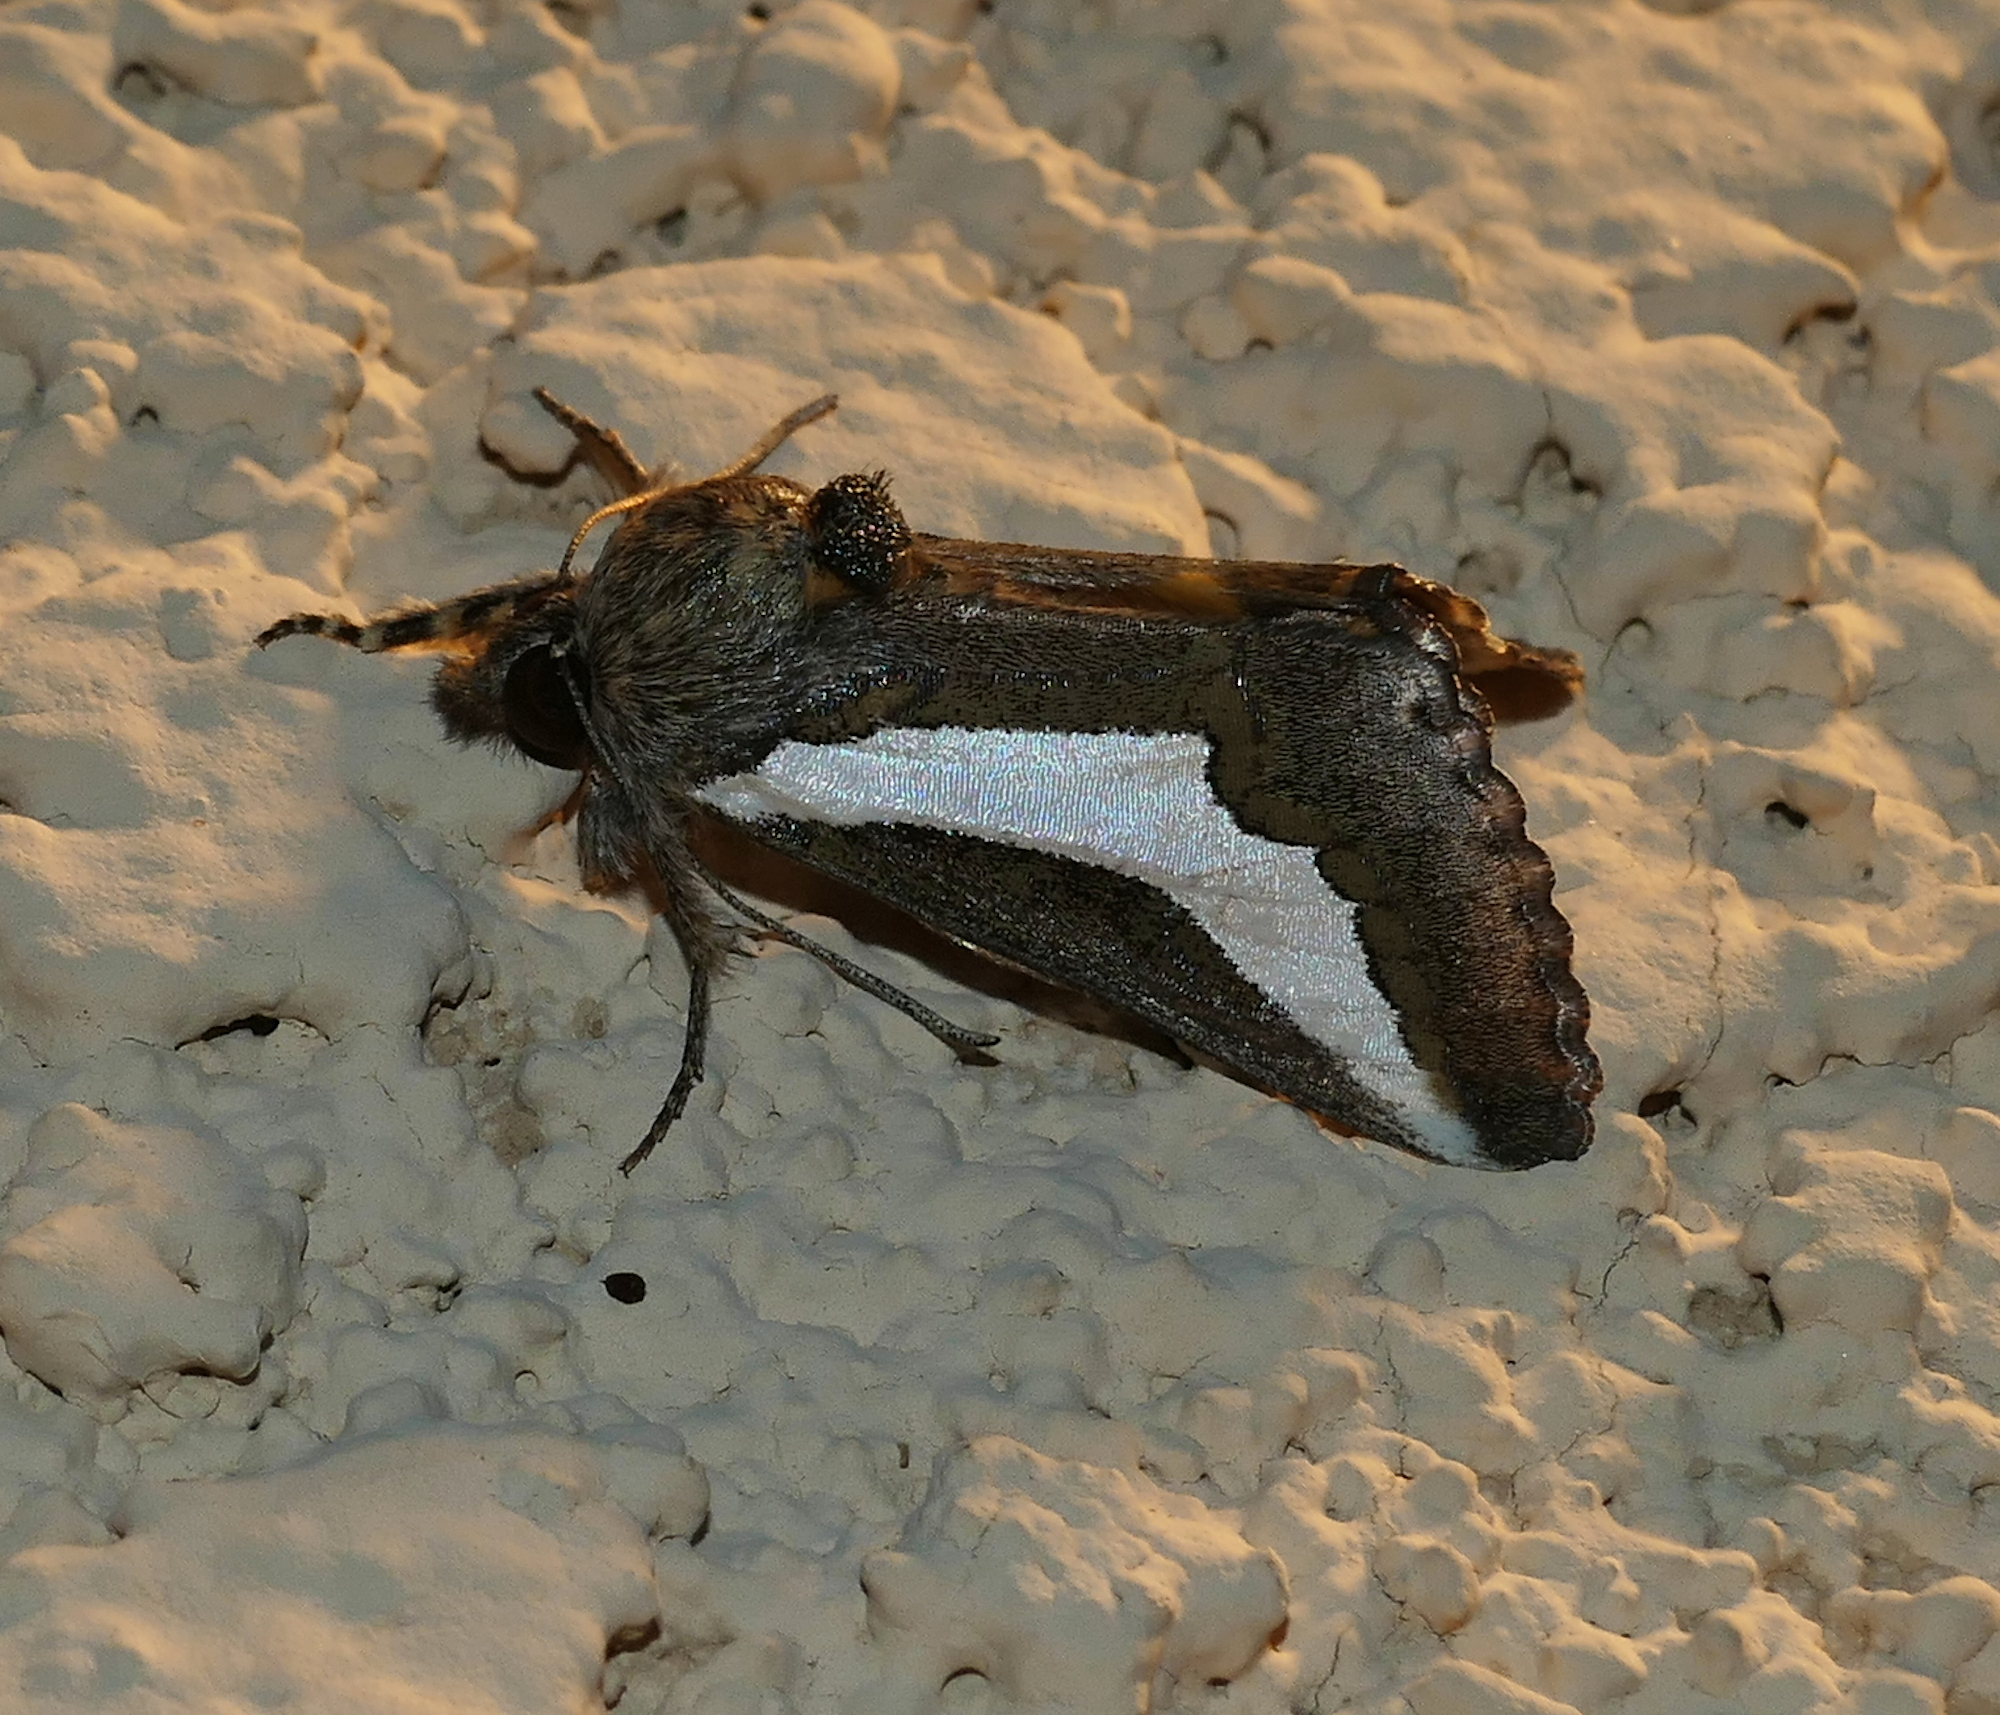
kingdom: Animalia
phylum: Arthropoda
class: Insecta
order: Lepidoptera
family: Noctuidae
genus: Euscirrhopterus
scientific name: Euscirrhopterus cosyra
